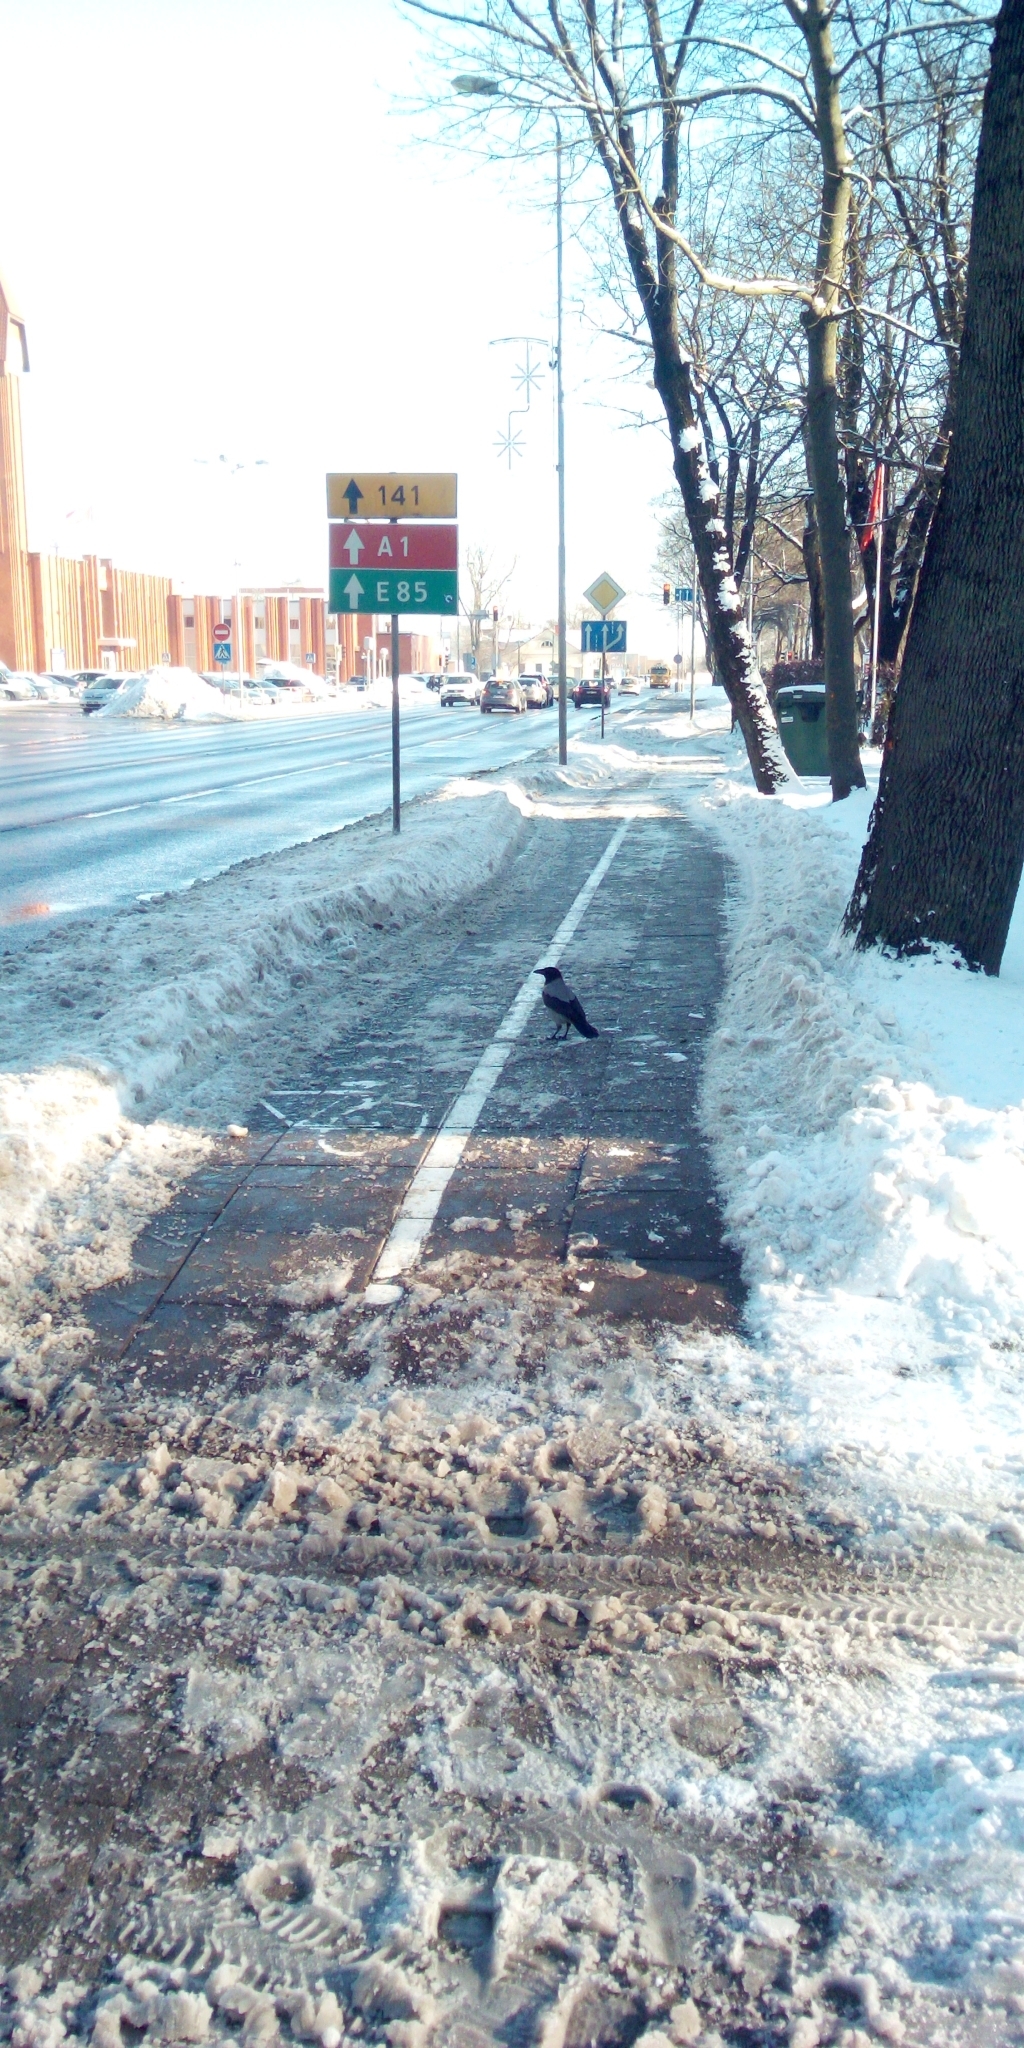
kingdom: Animalia
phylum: Chordata
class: Aves
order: Passeriformes
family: Corvidae
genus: Corvus
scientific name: Corvus cornix
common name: Hooded crow
